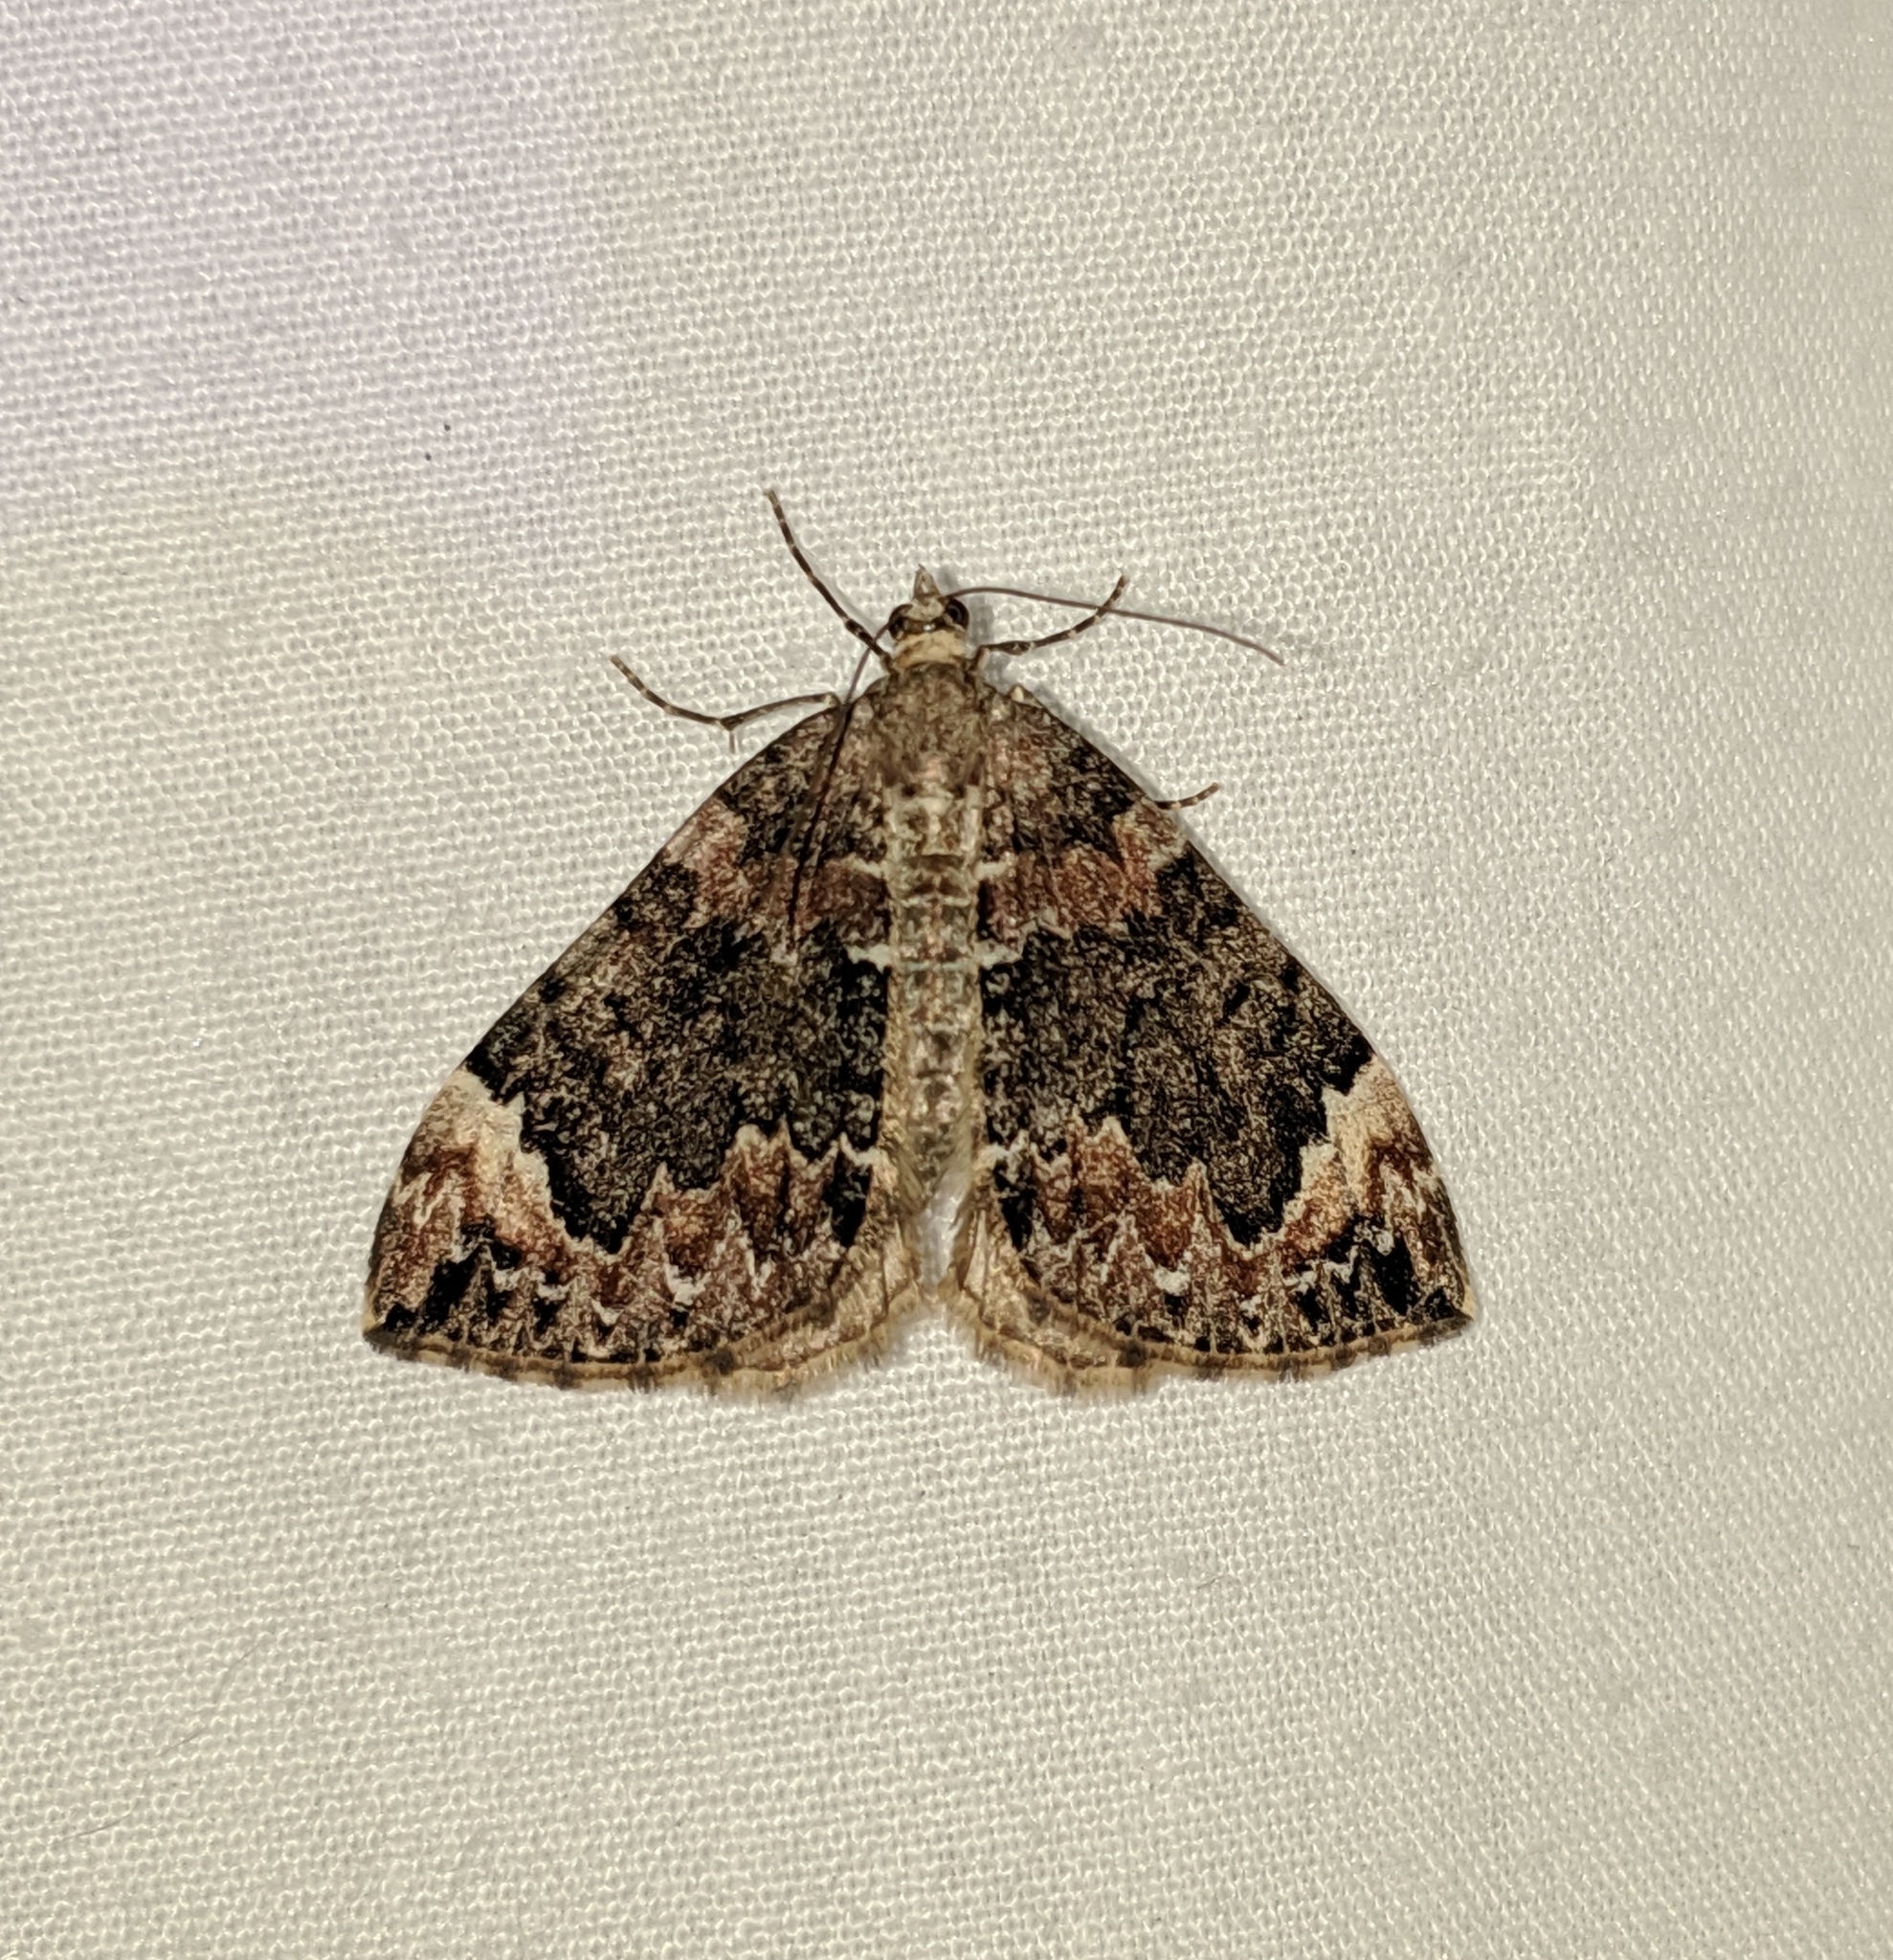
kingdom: Animalia
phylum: Arthropoda
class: Insecta
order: Lepidoptera
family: Geometridae
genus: Dysstroma
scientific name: Dysstroma citrata
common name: Dark marbled carpet
